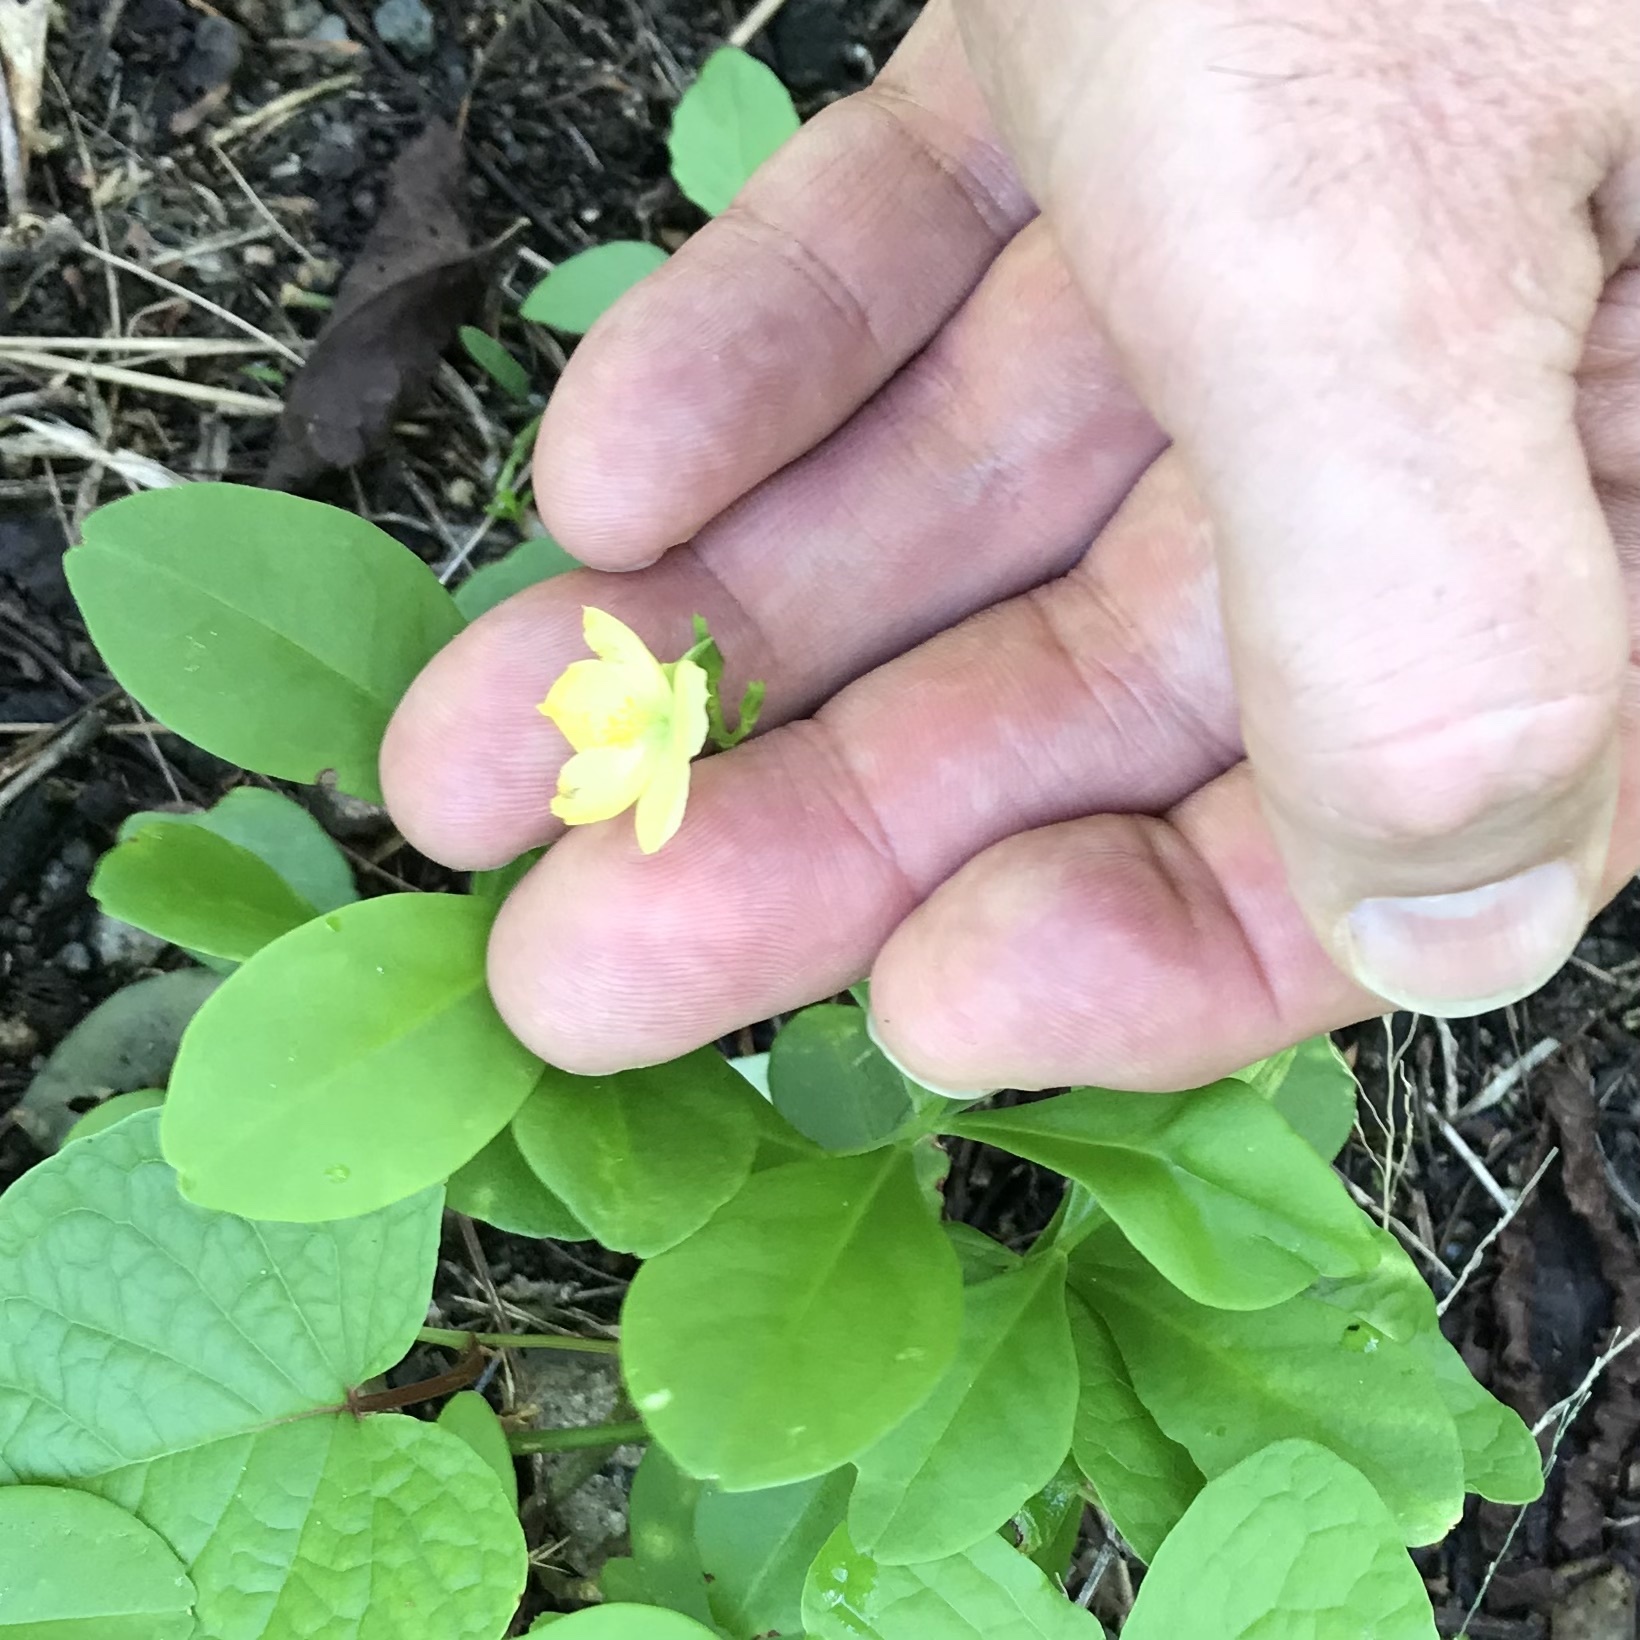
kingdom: Plantae
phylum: Tracheophyta
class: Magnoliopsida
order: Caryophyllales
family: Talinaceae
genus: Talinum
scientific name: Talinum fruticosum
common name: Verdolaga-francesa
